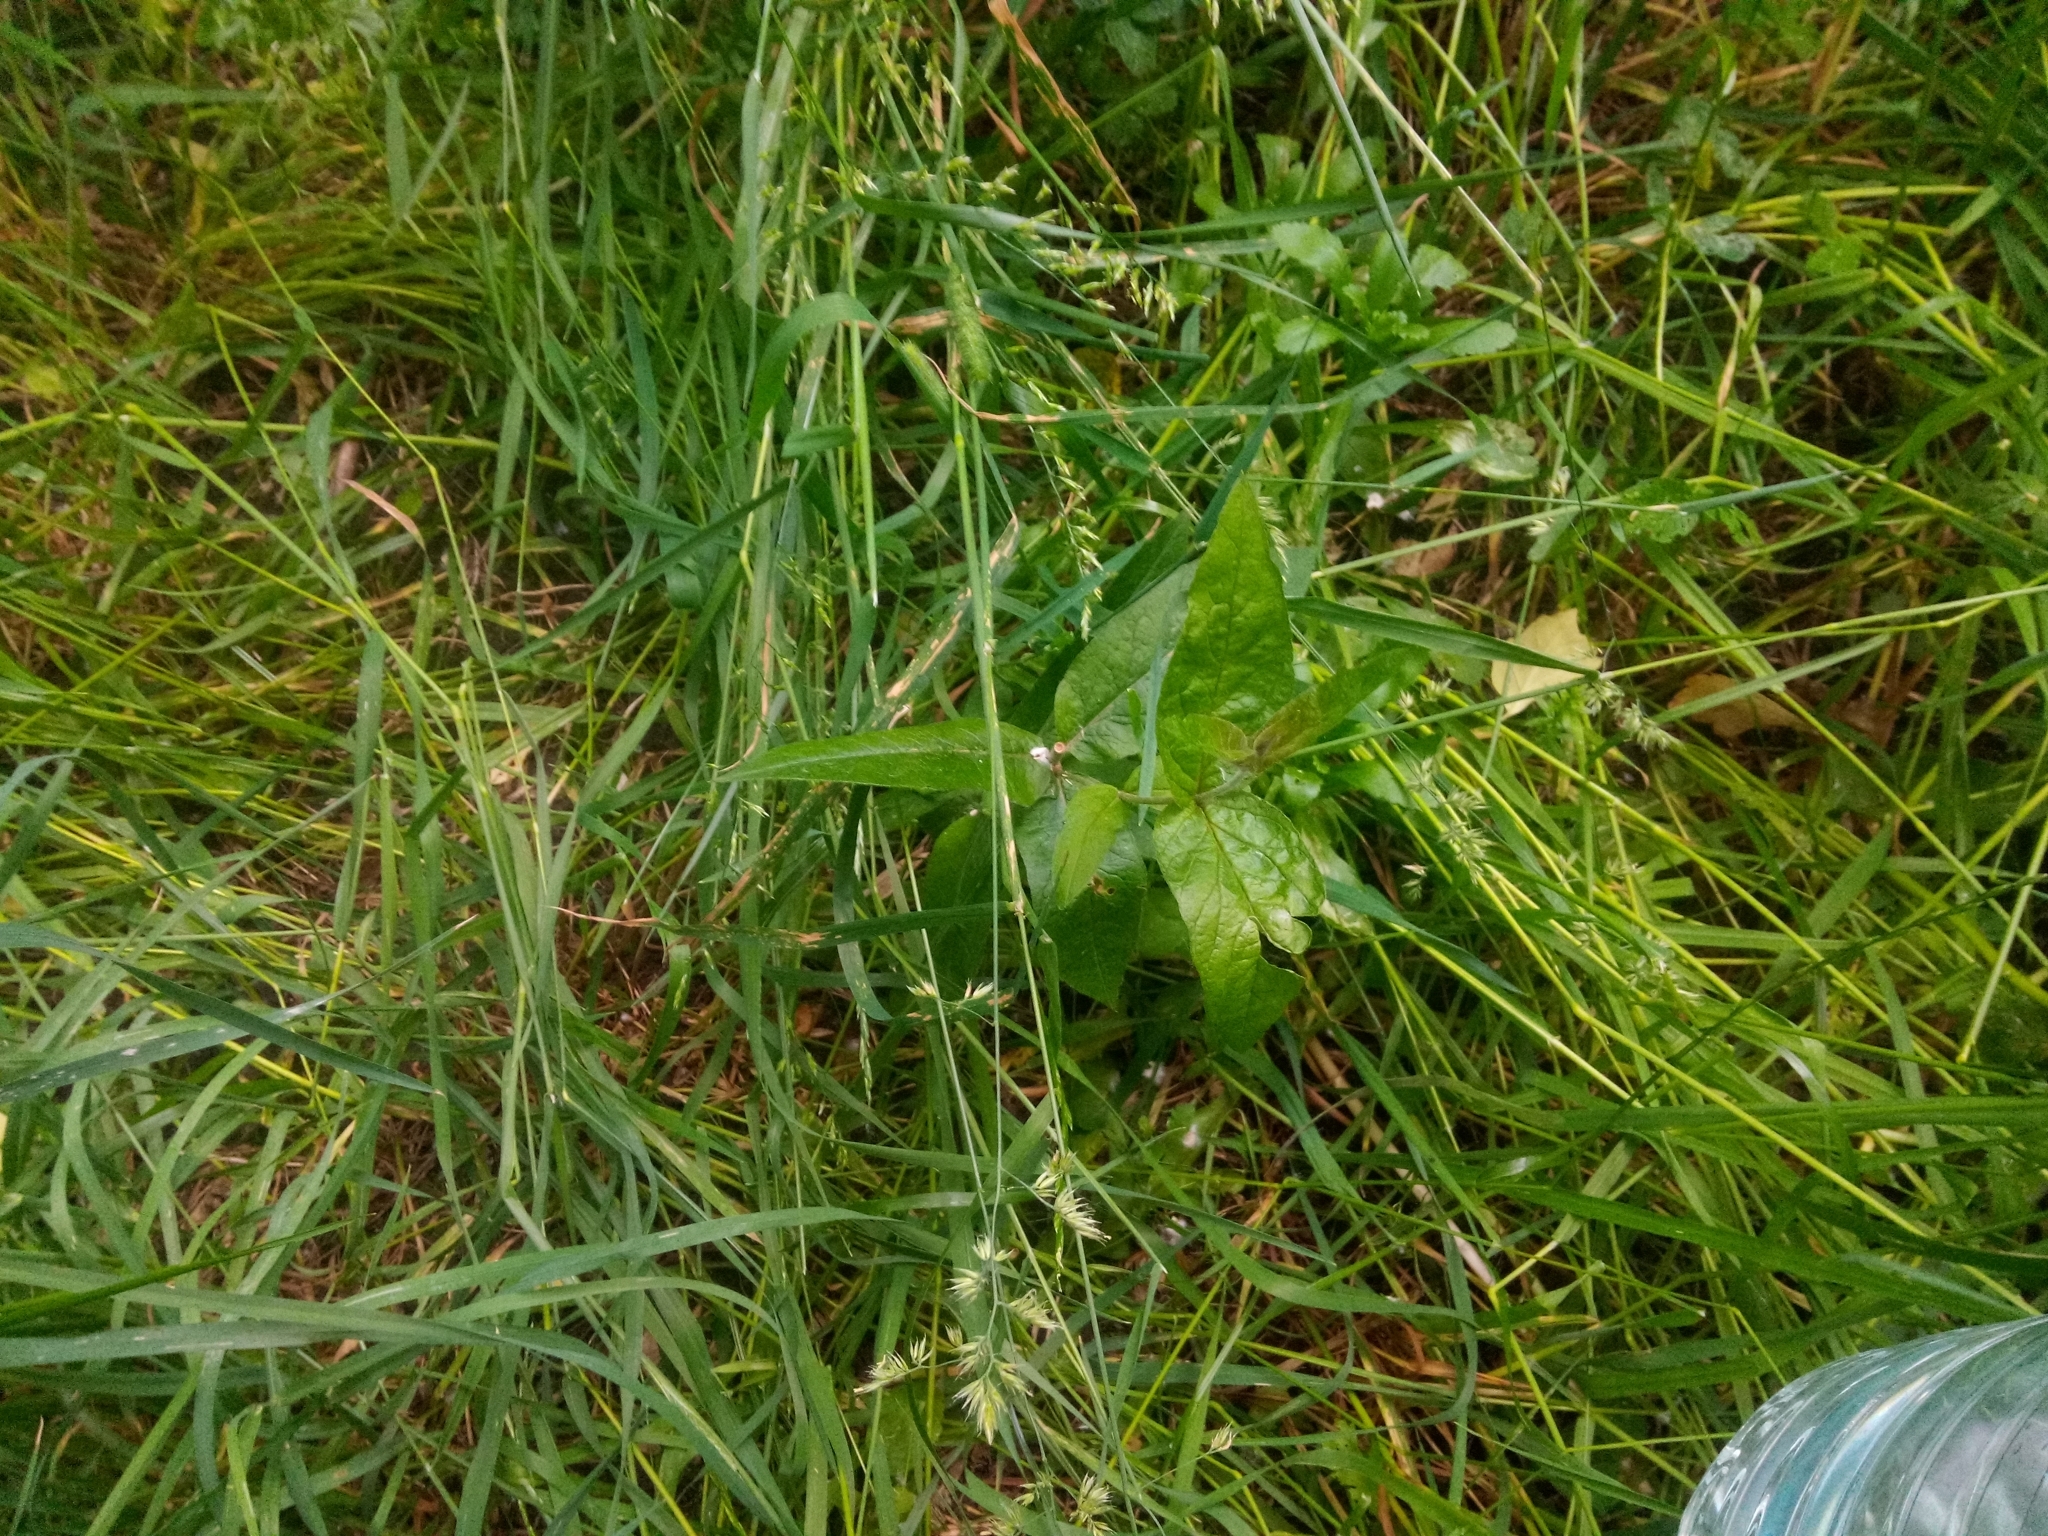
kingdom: Plantae
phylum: Tracheophyta
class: Magnoliopsida
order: Ericales
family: Primulaceae
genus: Lysimachia
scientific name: Lysimachia vulgaris
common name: Yellow loosestrife
